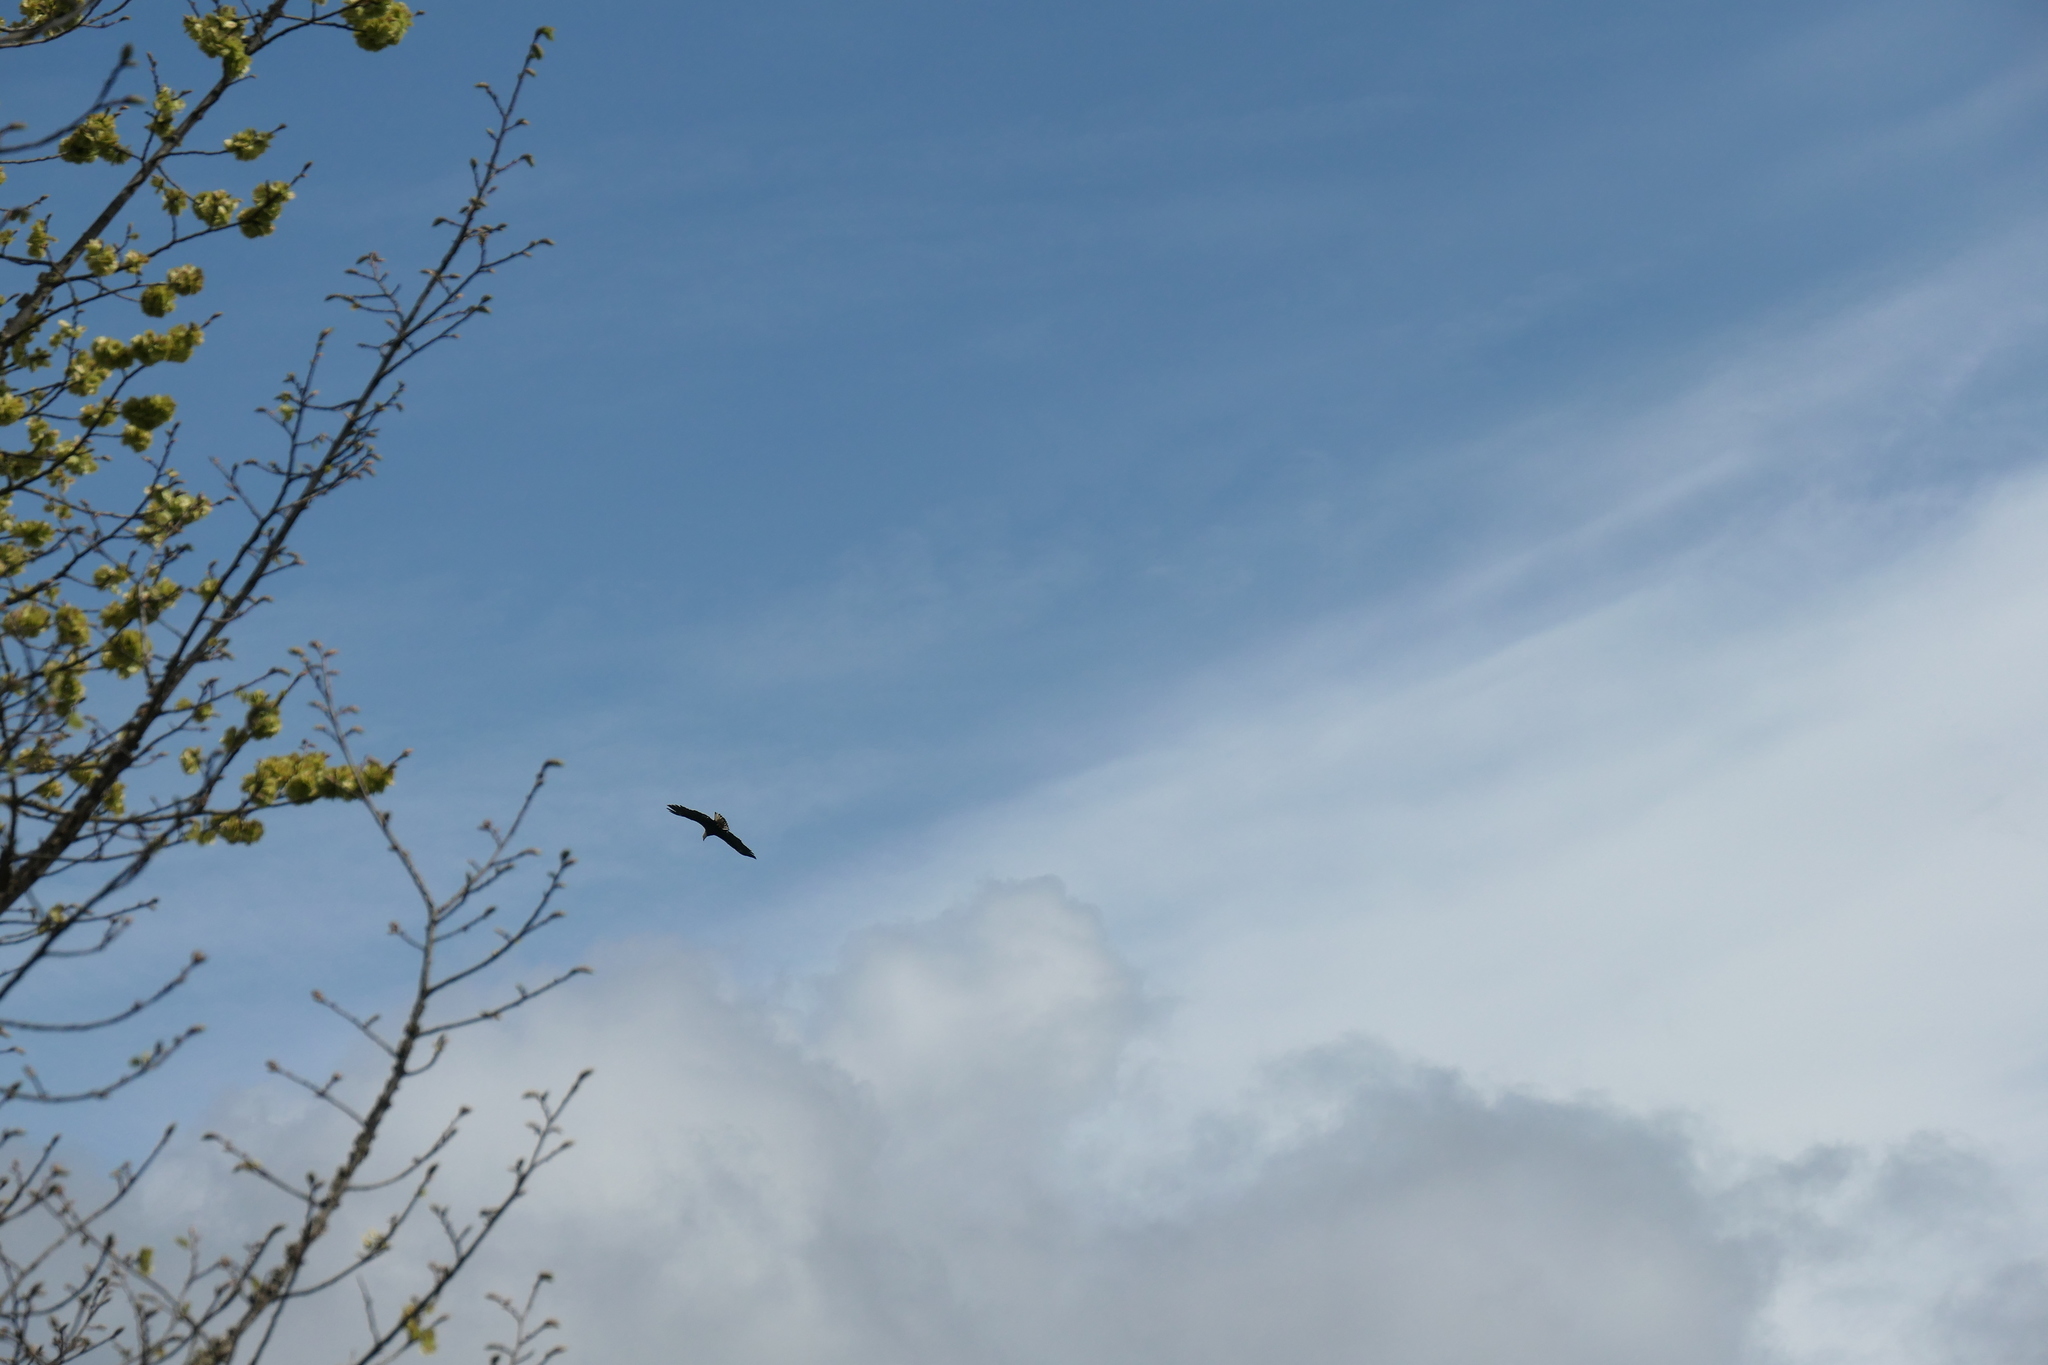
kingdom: Animalia
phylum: Chordata
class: Aves
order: Accipitriformes
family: Accipitridae
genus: Haliaeetus
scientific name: Haliaeetus leucocephalus
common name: Bald eagle
